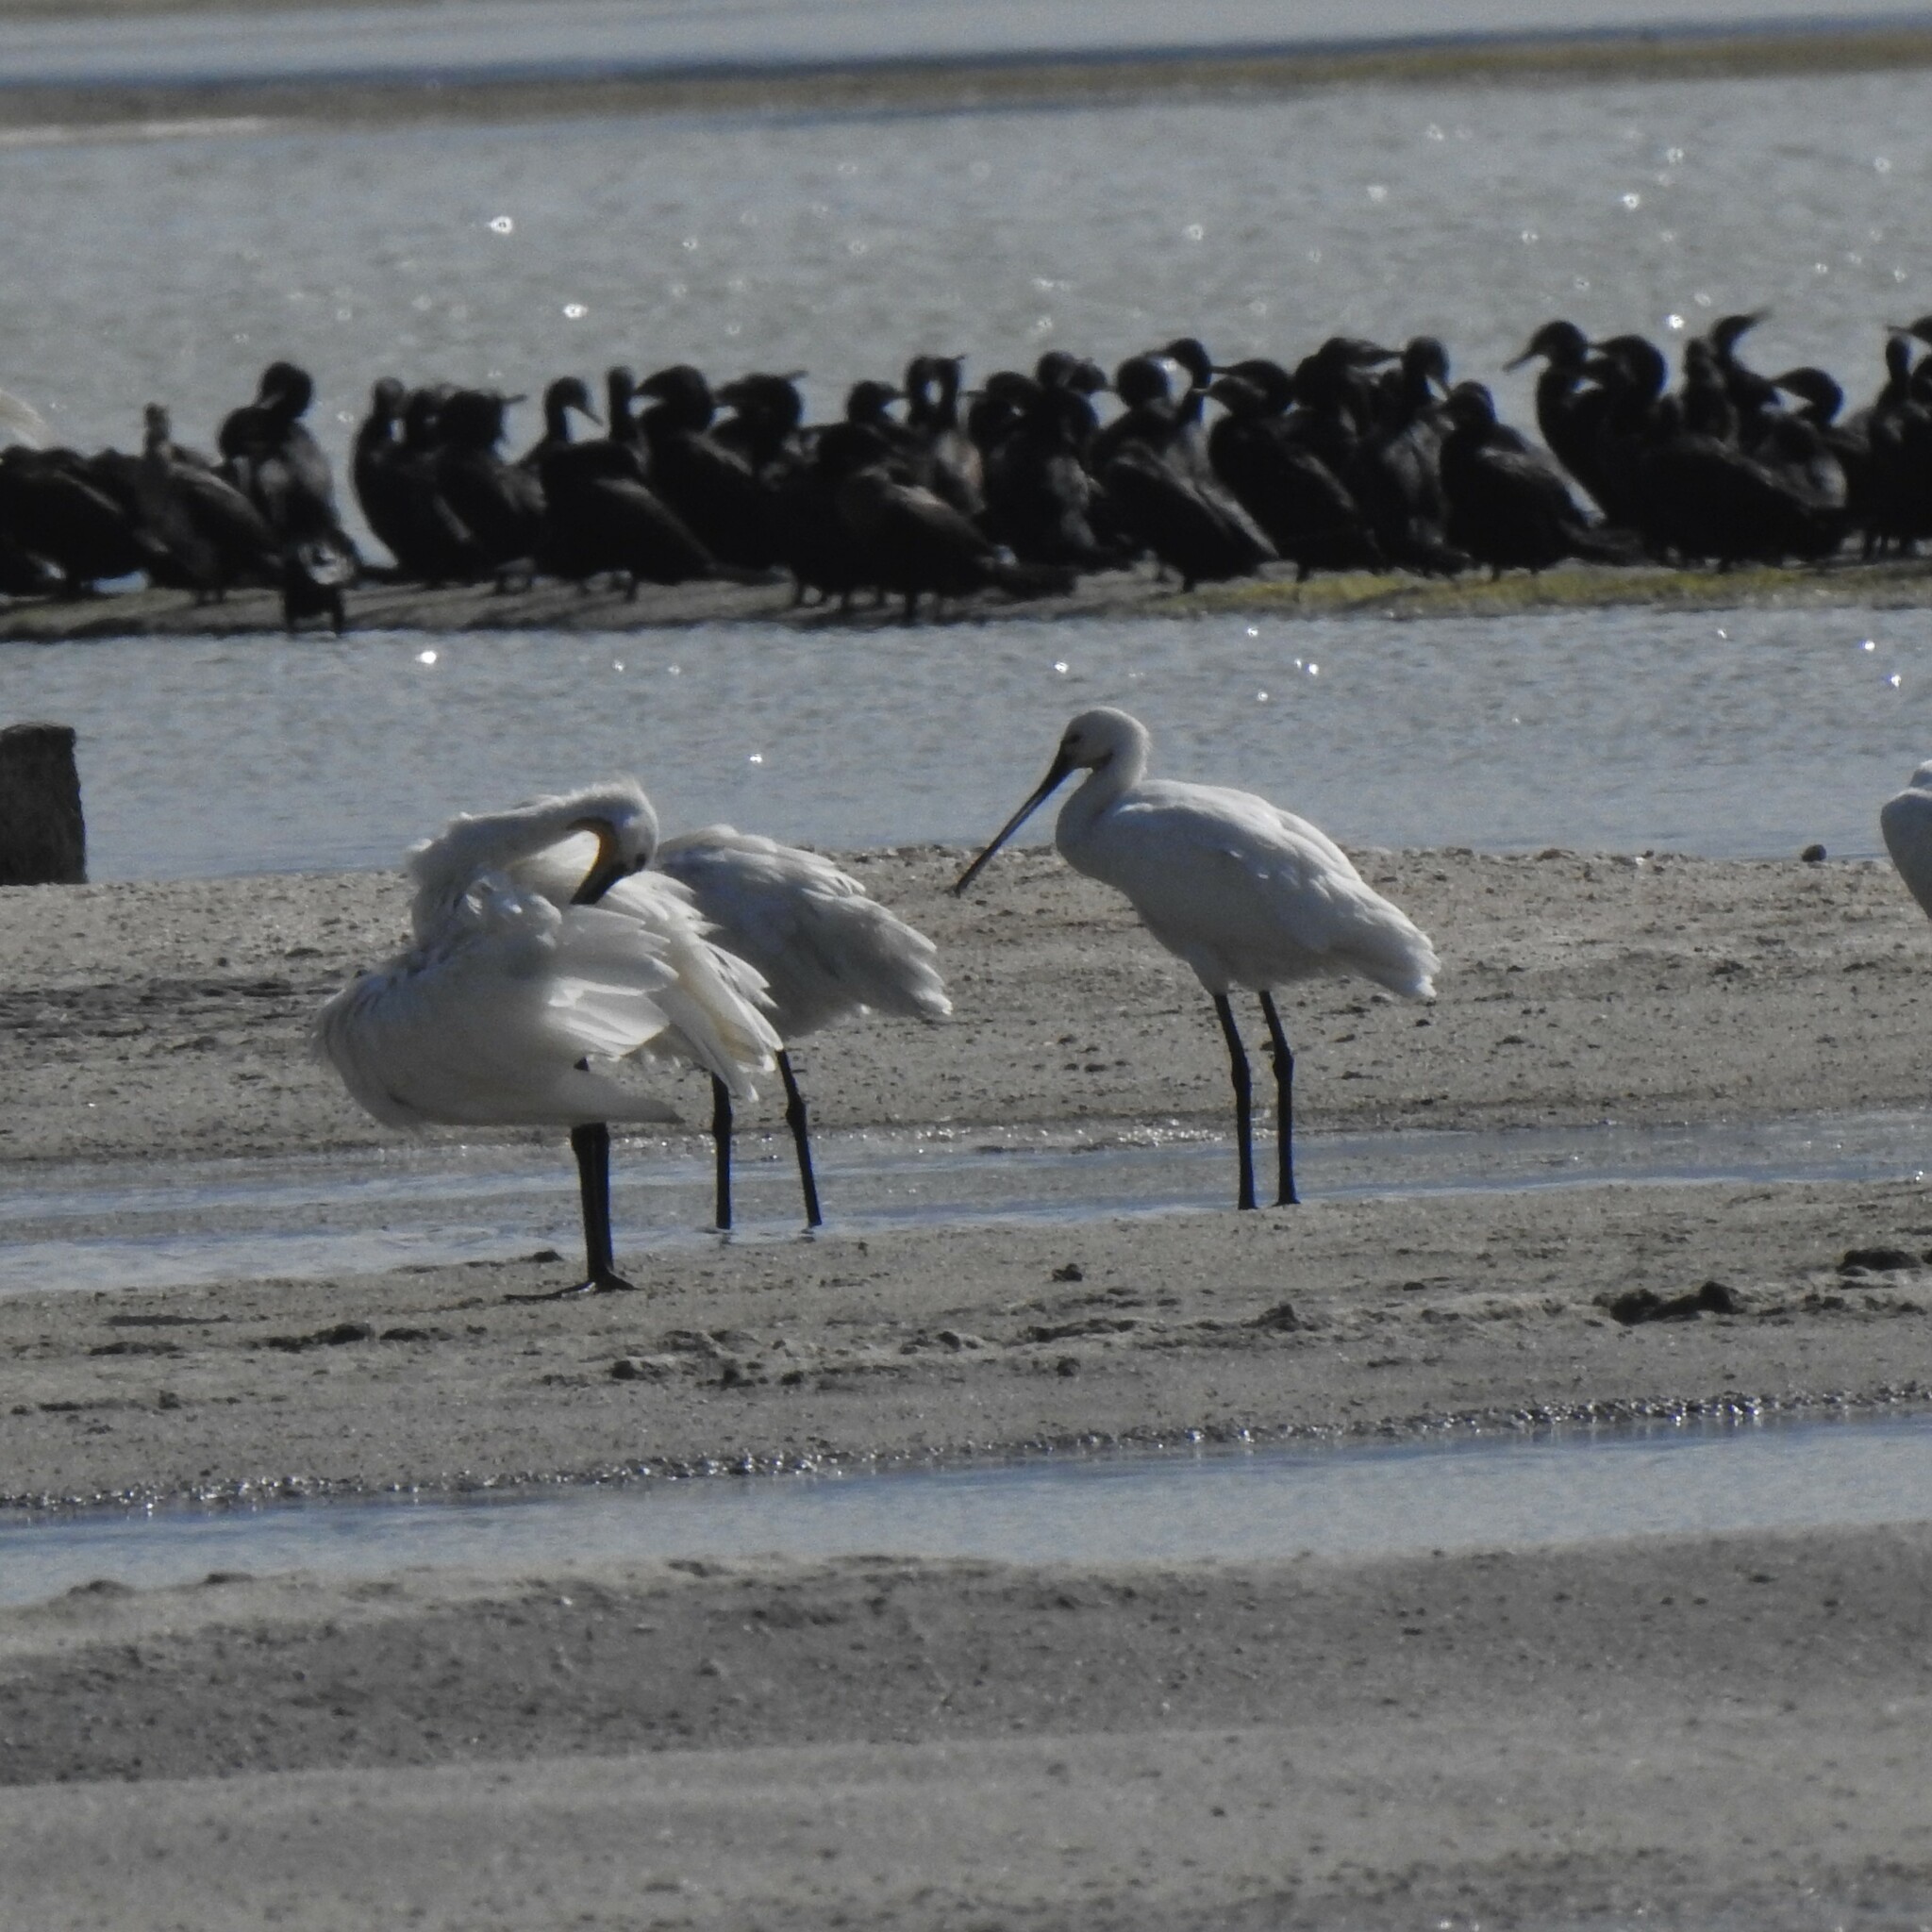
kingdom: Animalia
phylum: Chordata
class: Aves
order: Pelecaniformes
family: Threskiornithidae
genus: Platalea
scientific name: Platalea leucorodia
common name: Eurasian spoonbill
